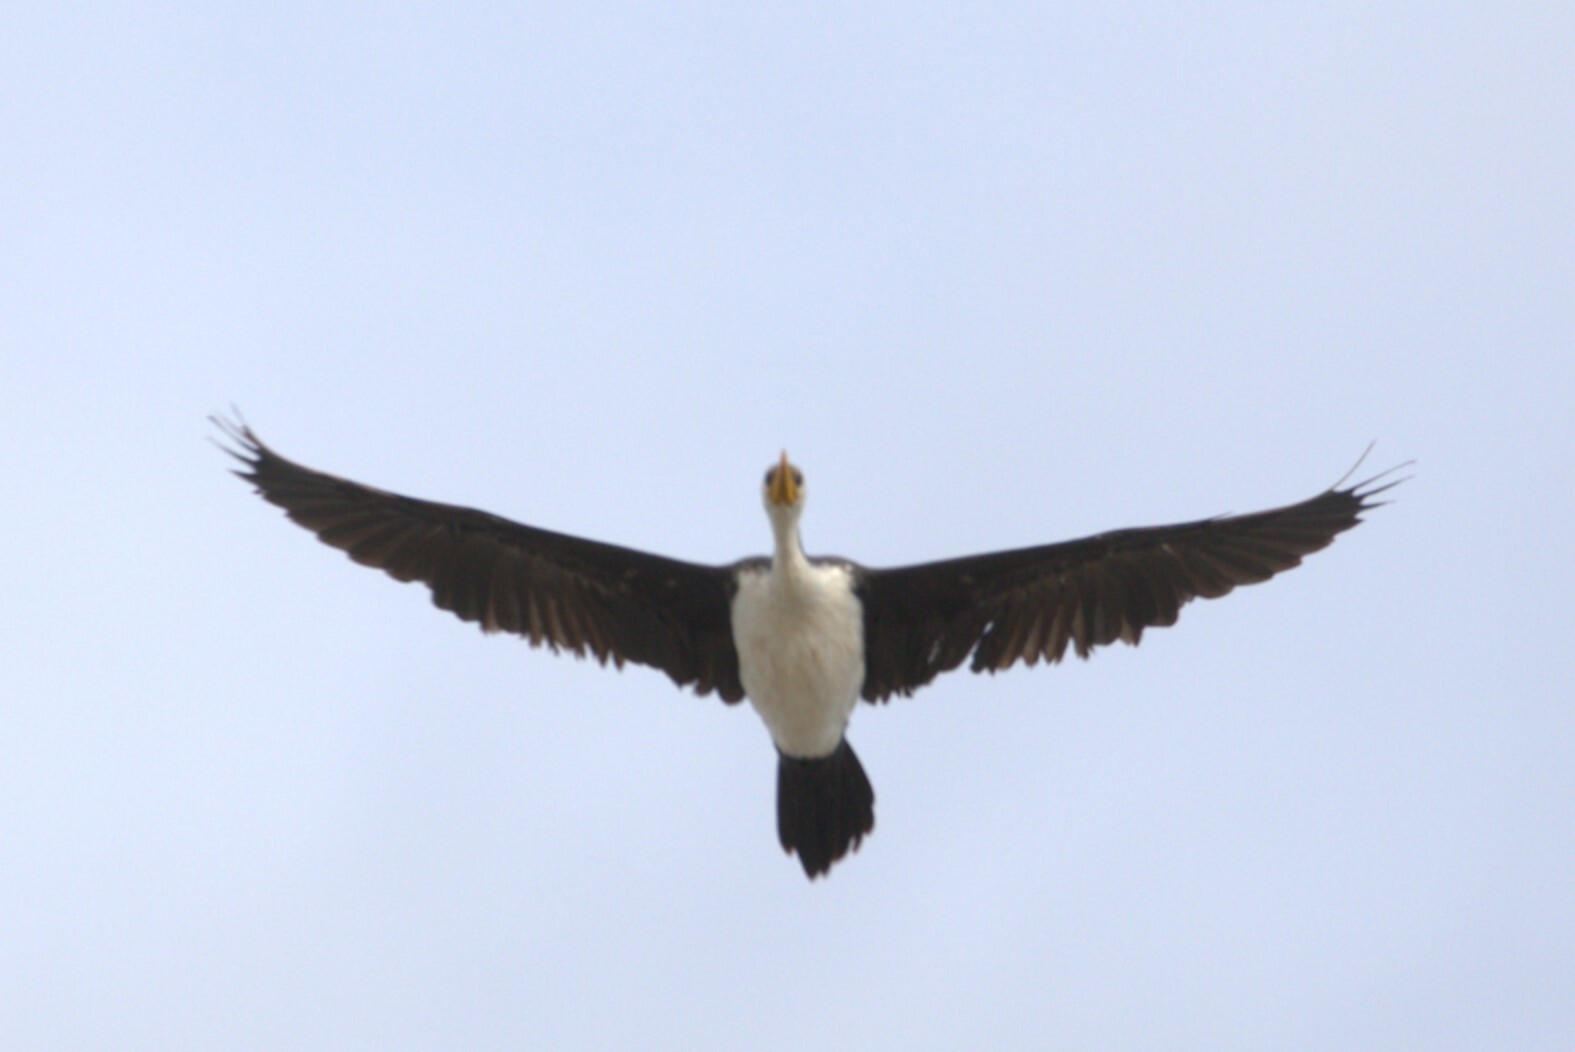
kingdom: Animalia
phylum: Chordata
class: Aves
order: Suliformes
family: Phalacrocoracidae
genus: Microcarbo
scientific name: Microcarbo melanoleucos
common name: Little pied cormorant
